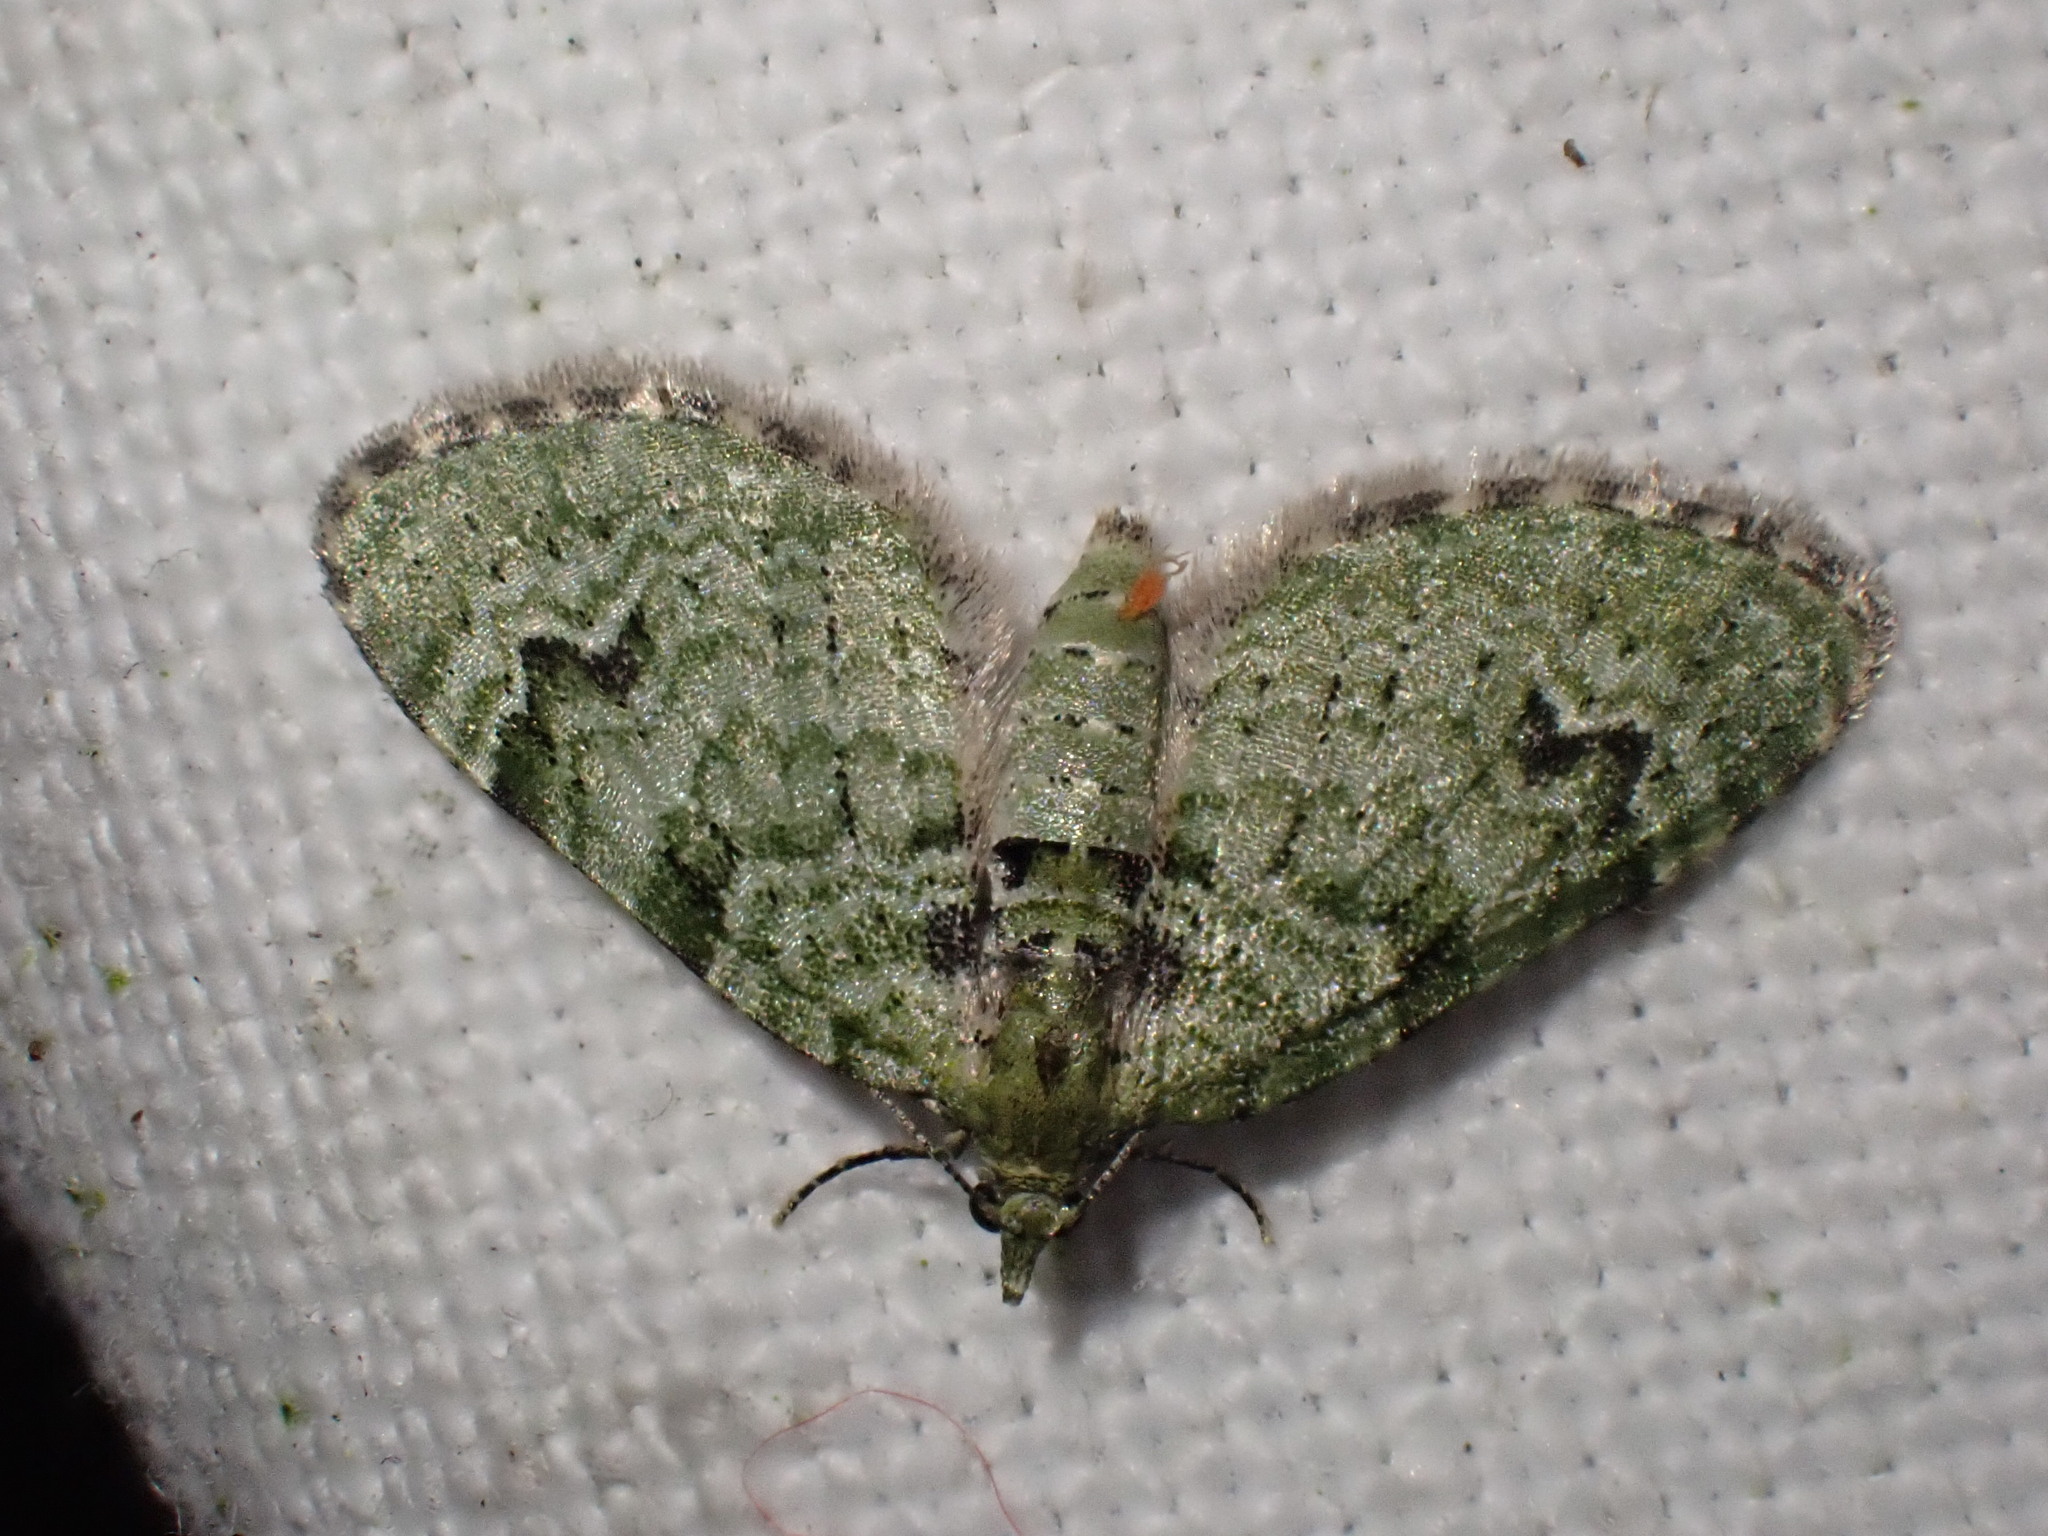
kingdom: Animalia
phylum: Arthropoda
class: Insecta
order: Lepidoptera
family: Geometridae
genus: Chloroclystis
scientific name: Chloroclystis v-ata
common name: V-pug
